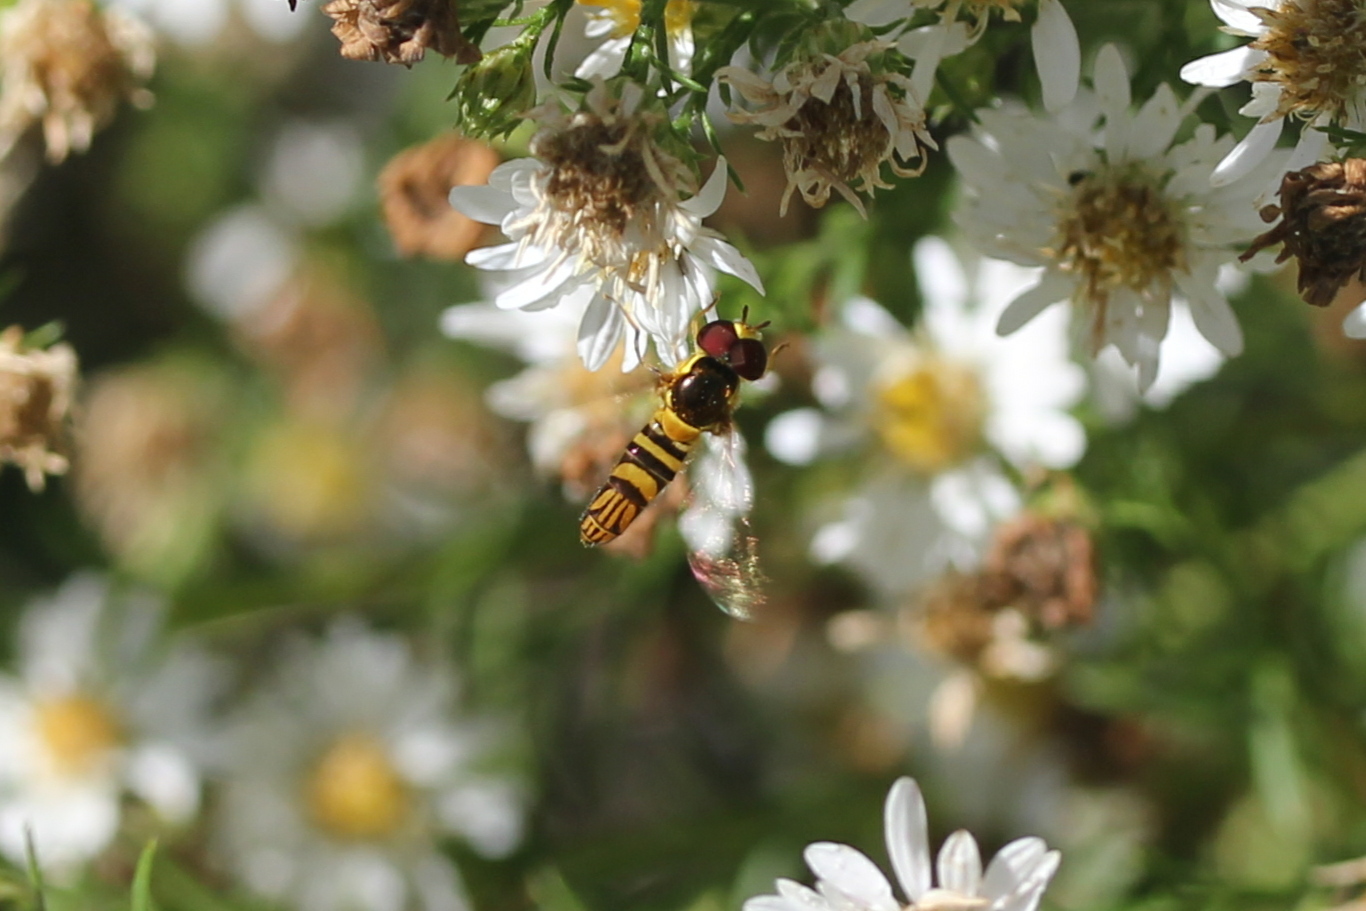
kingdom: Animalia
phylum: Arthropoda
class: Insecta
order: Diptera
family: Syrphidae
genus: Allograpta
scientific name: Allograpta obliqua
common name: Common oblique syrphid
